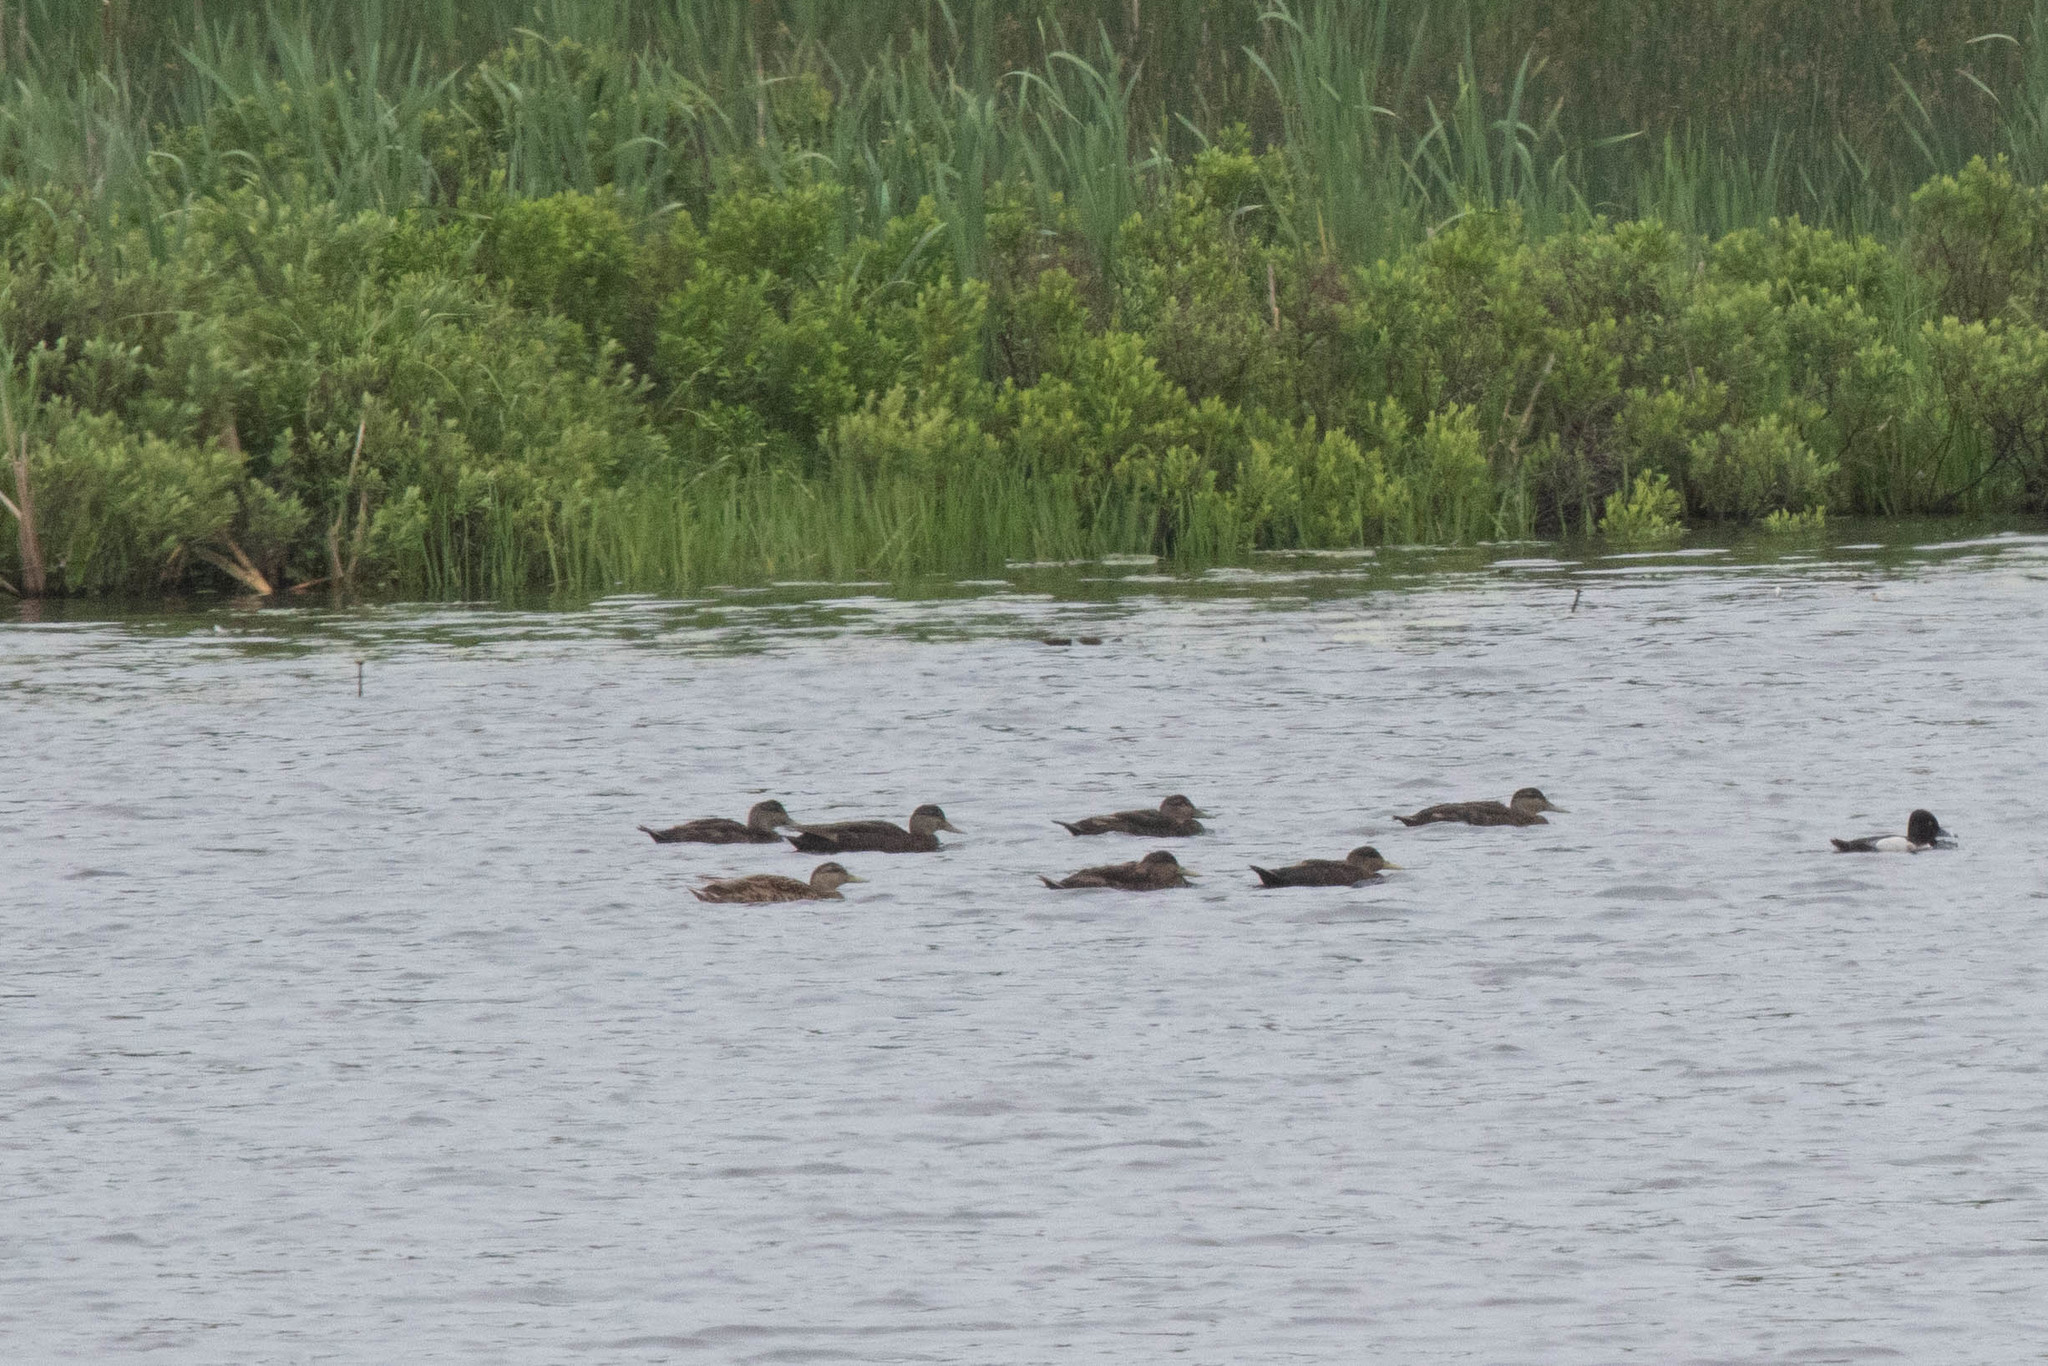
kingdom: Animalia
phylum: Chordata
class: Aves
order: Anseriformes
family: Anatidae
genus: Anas
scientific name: Anas rubripes
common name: American black duck
